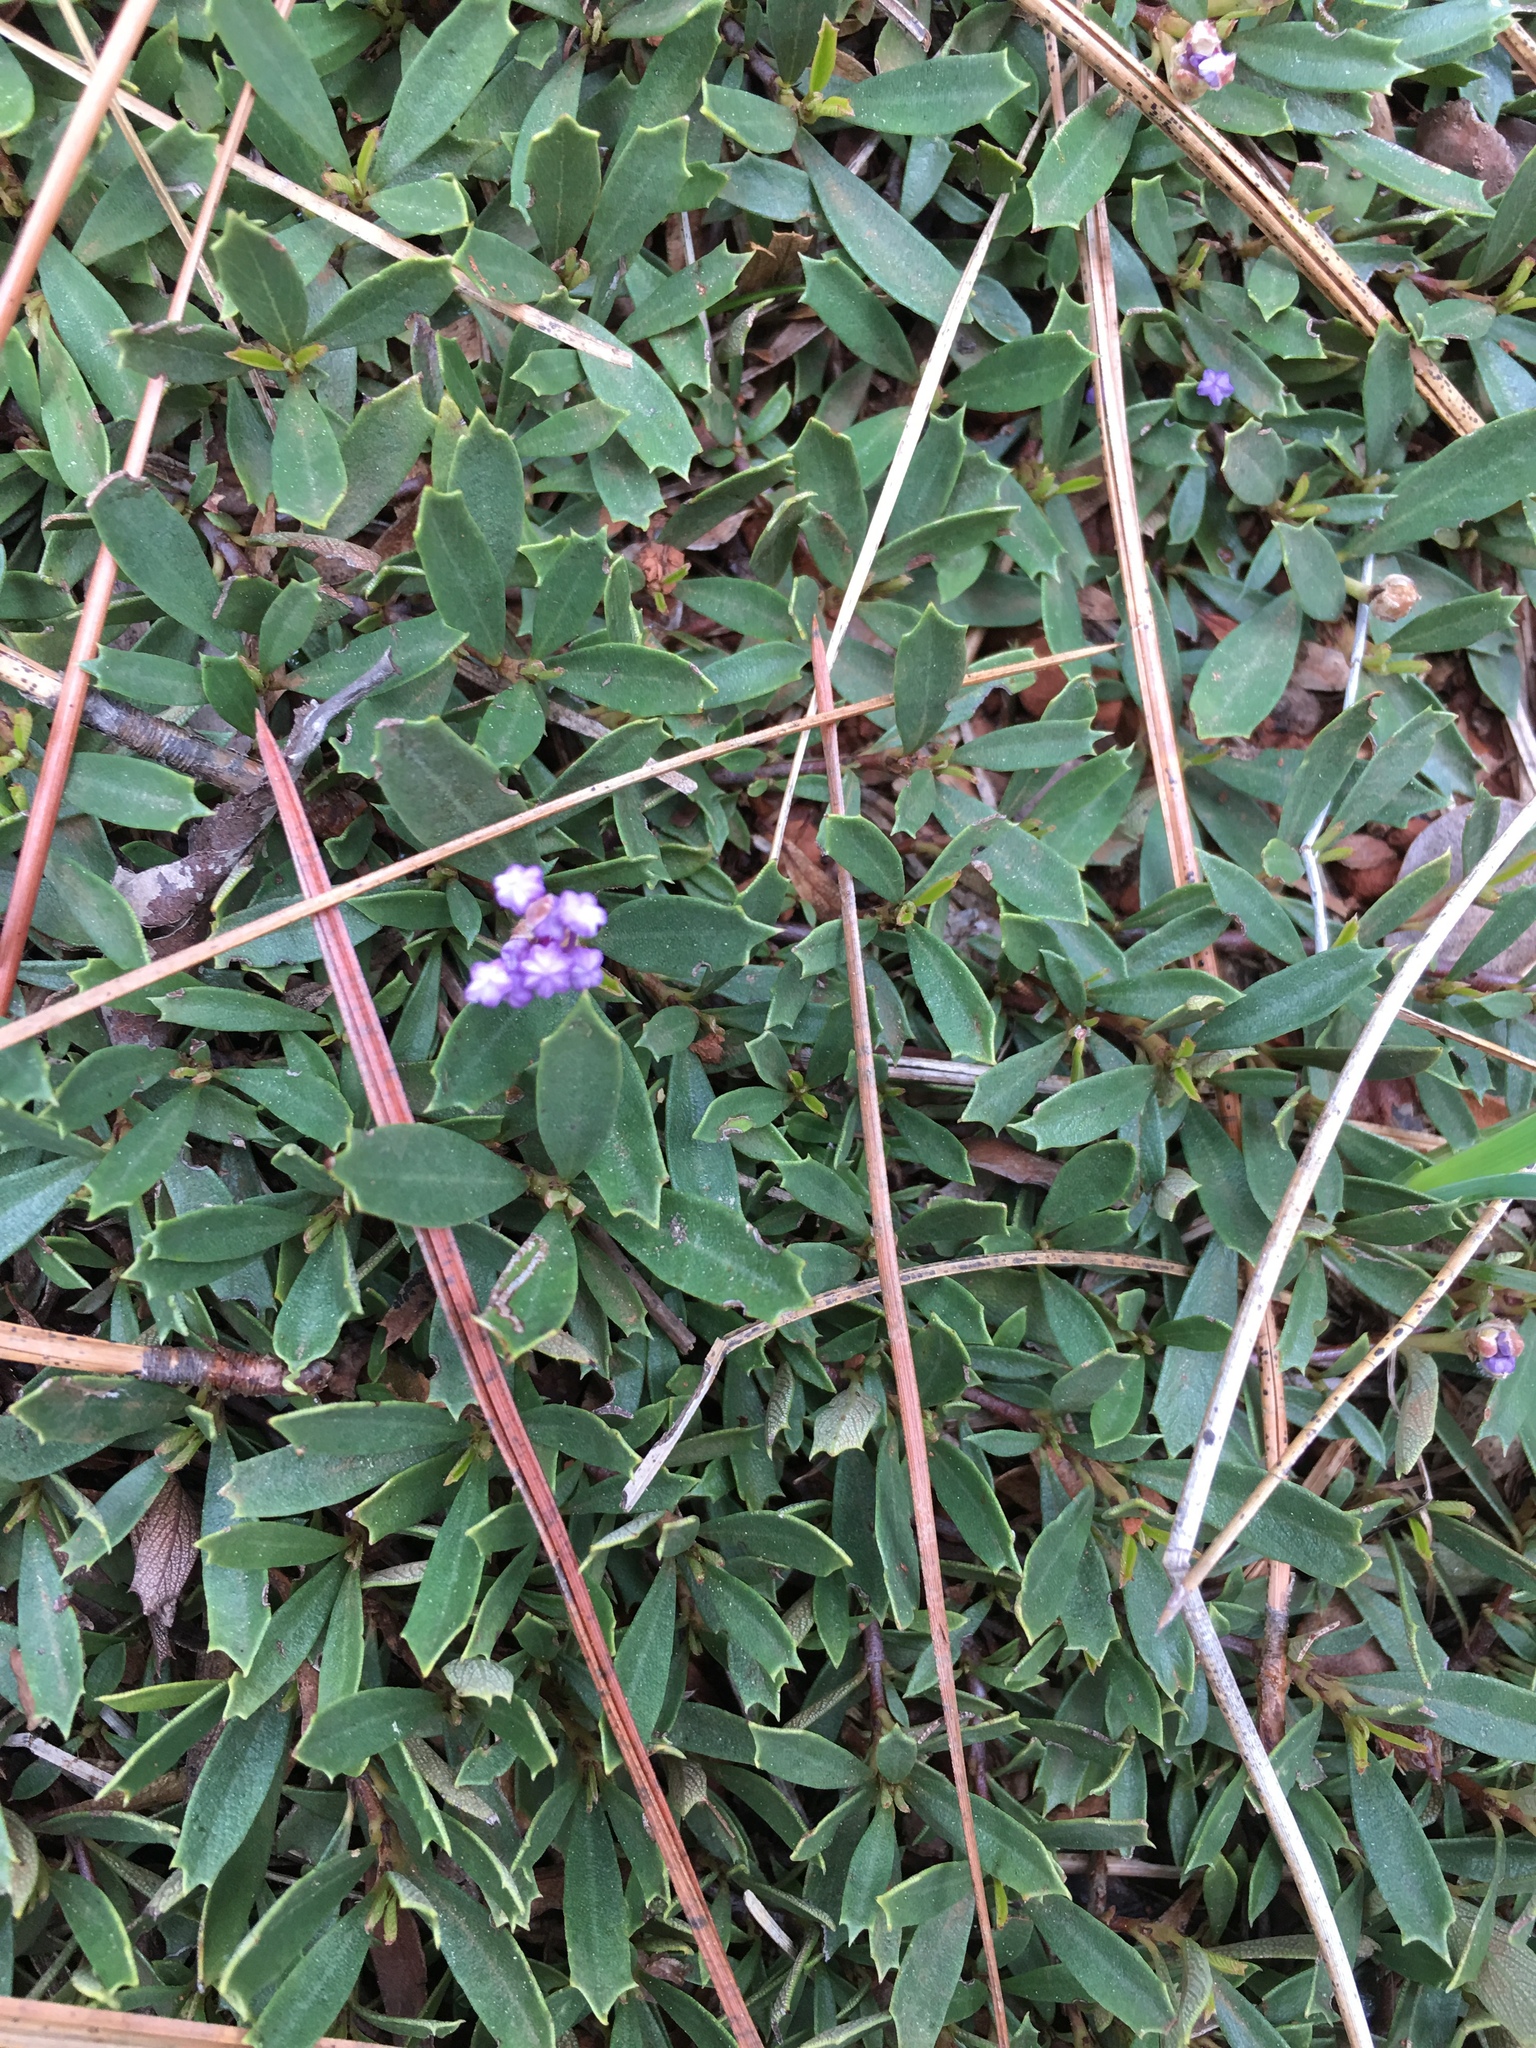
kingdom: Plantae
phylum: Tracheophyta
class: Magnoliopsida
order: Rosales
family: Rhamnaceae
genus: Ceanothus
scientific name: Ceanothus prostratus
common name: Mahala-mat
